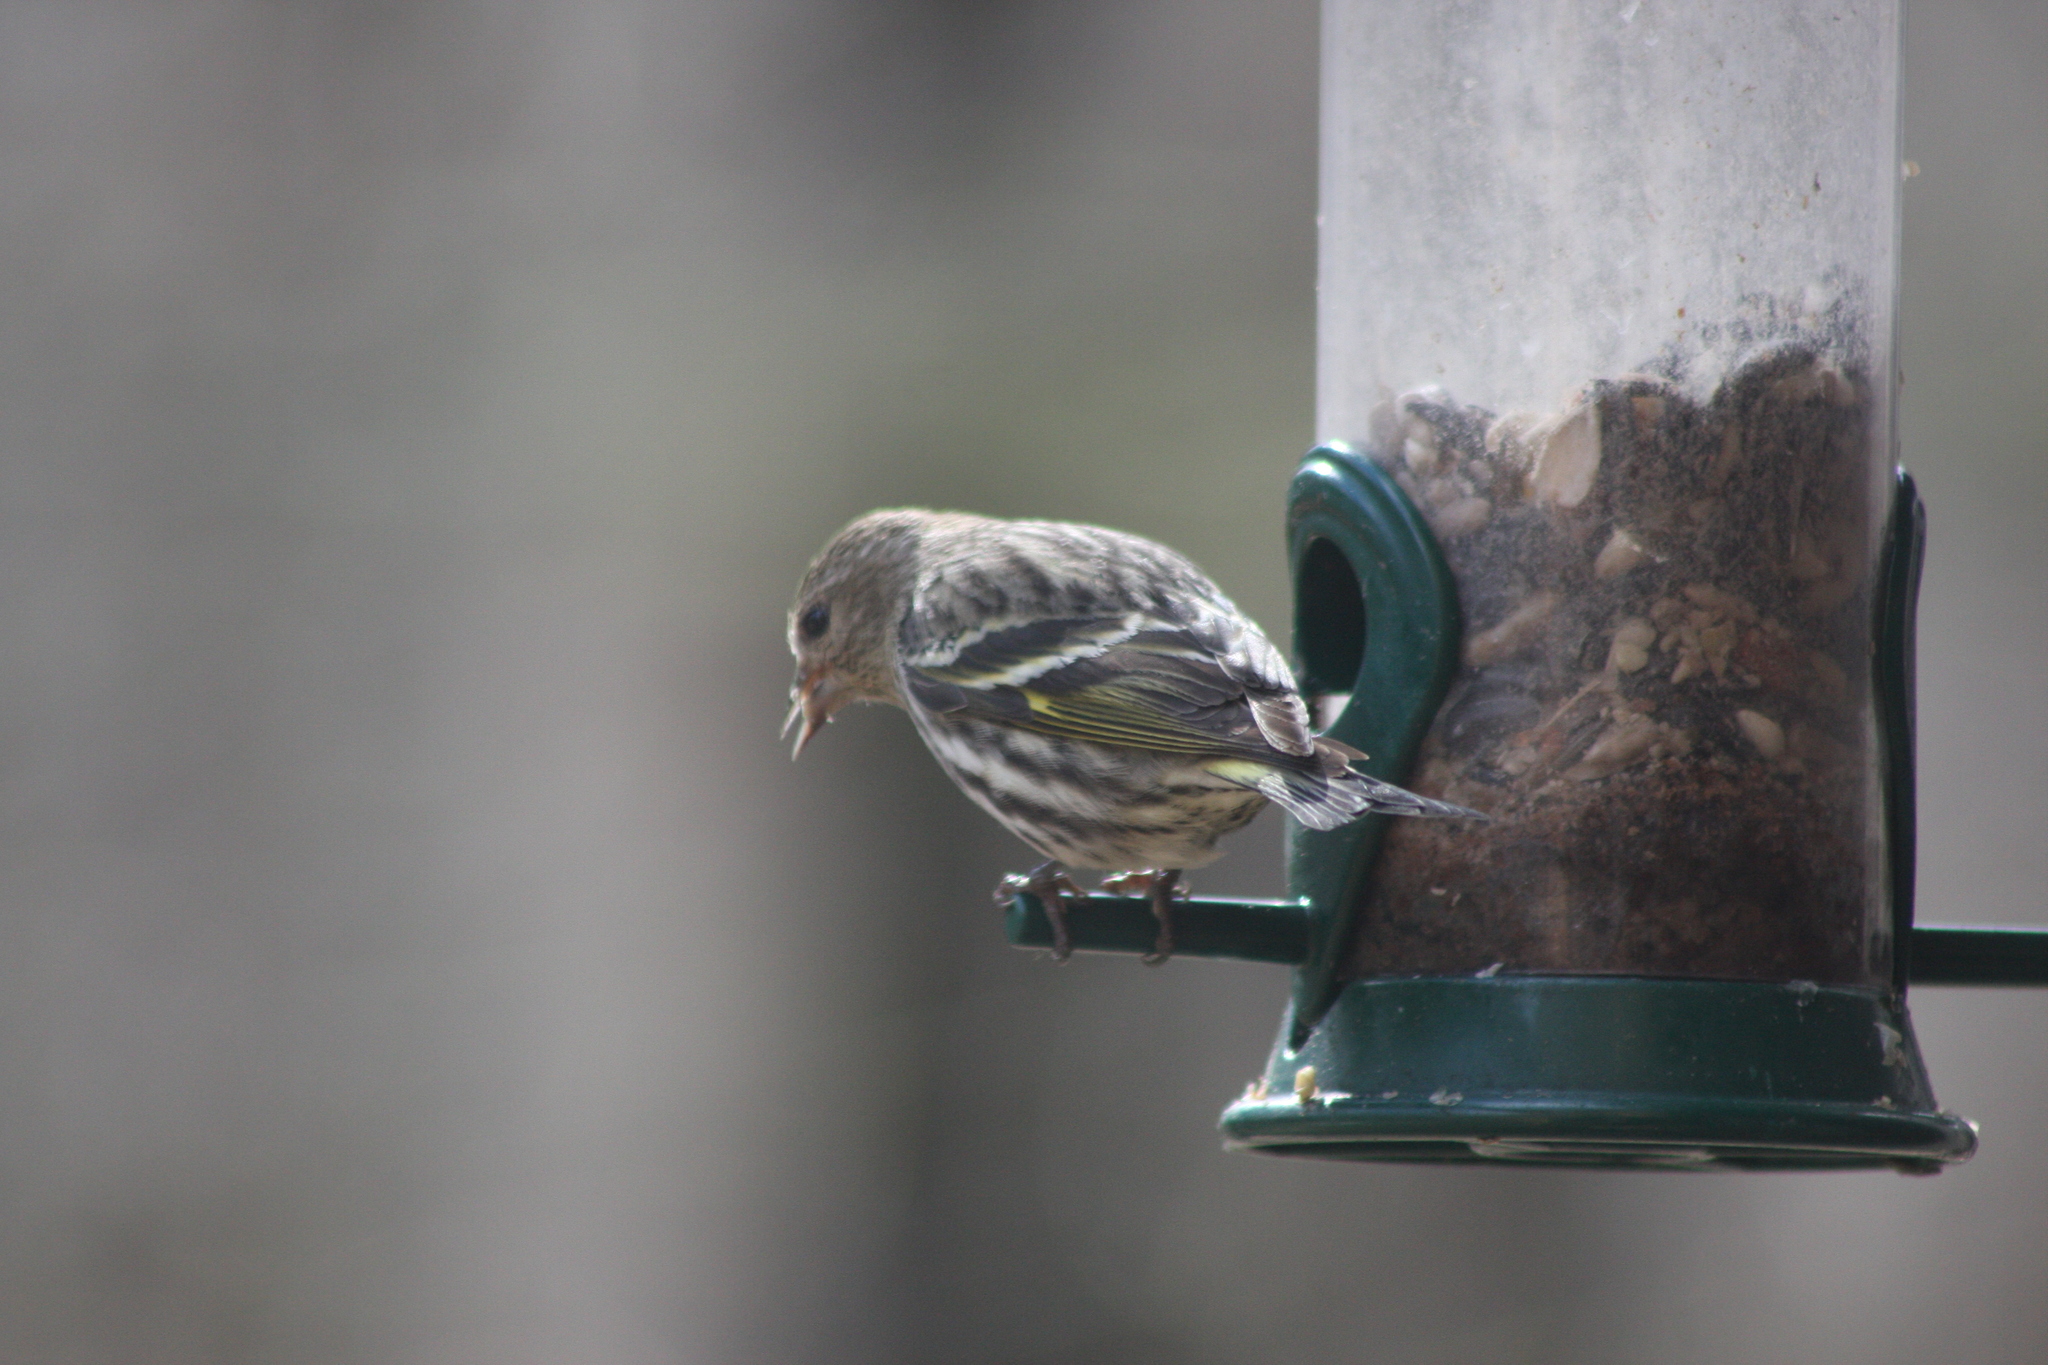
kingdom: Animalia
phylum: Chordata
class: Aves
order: Passeriformes
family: Fringillidae
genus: Spinus
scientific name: Spinus pinus
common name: Pine siskin
